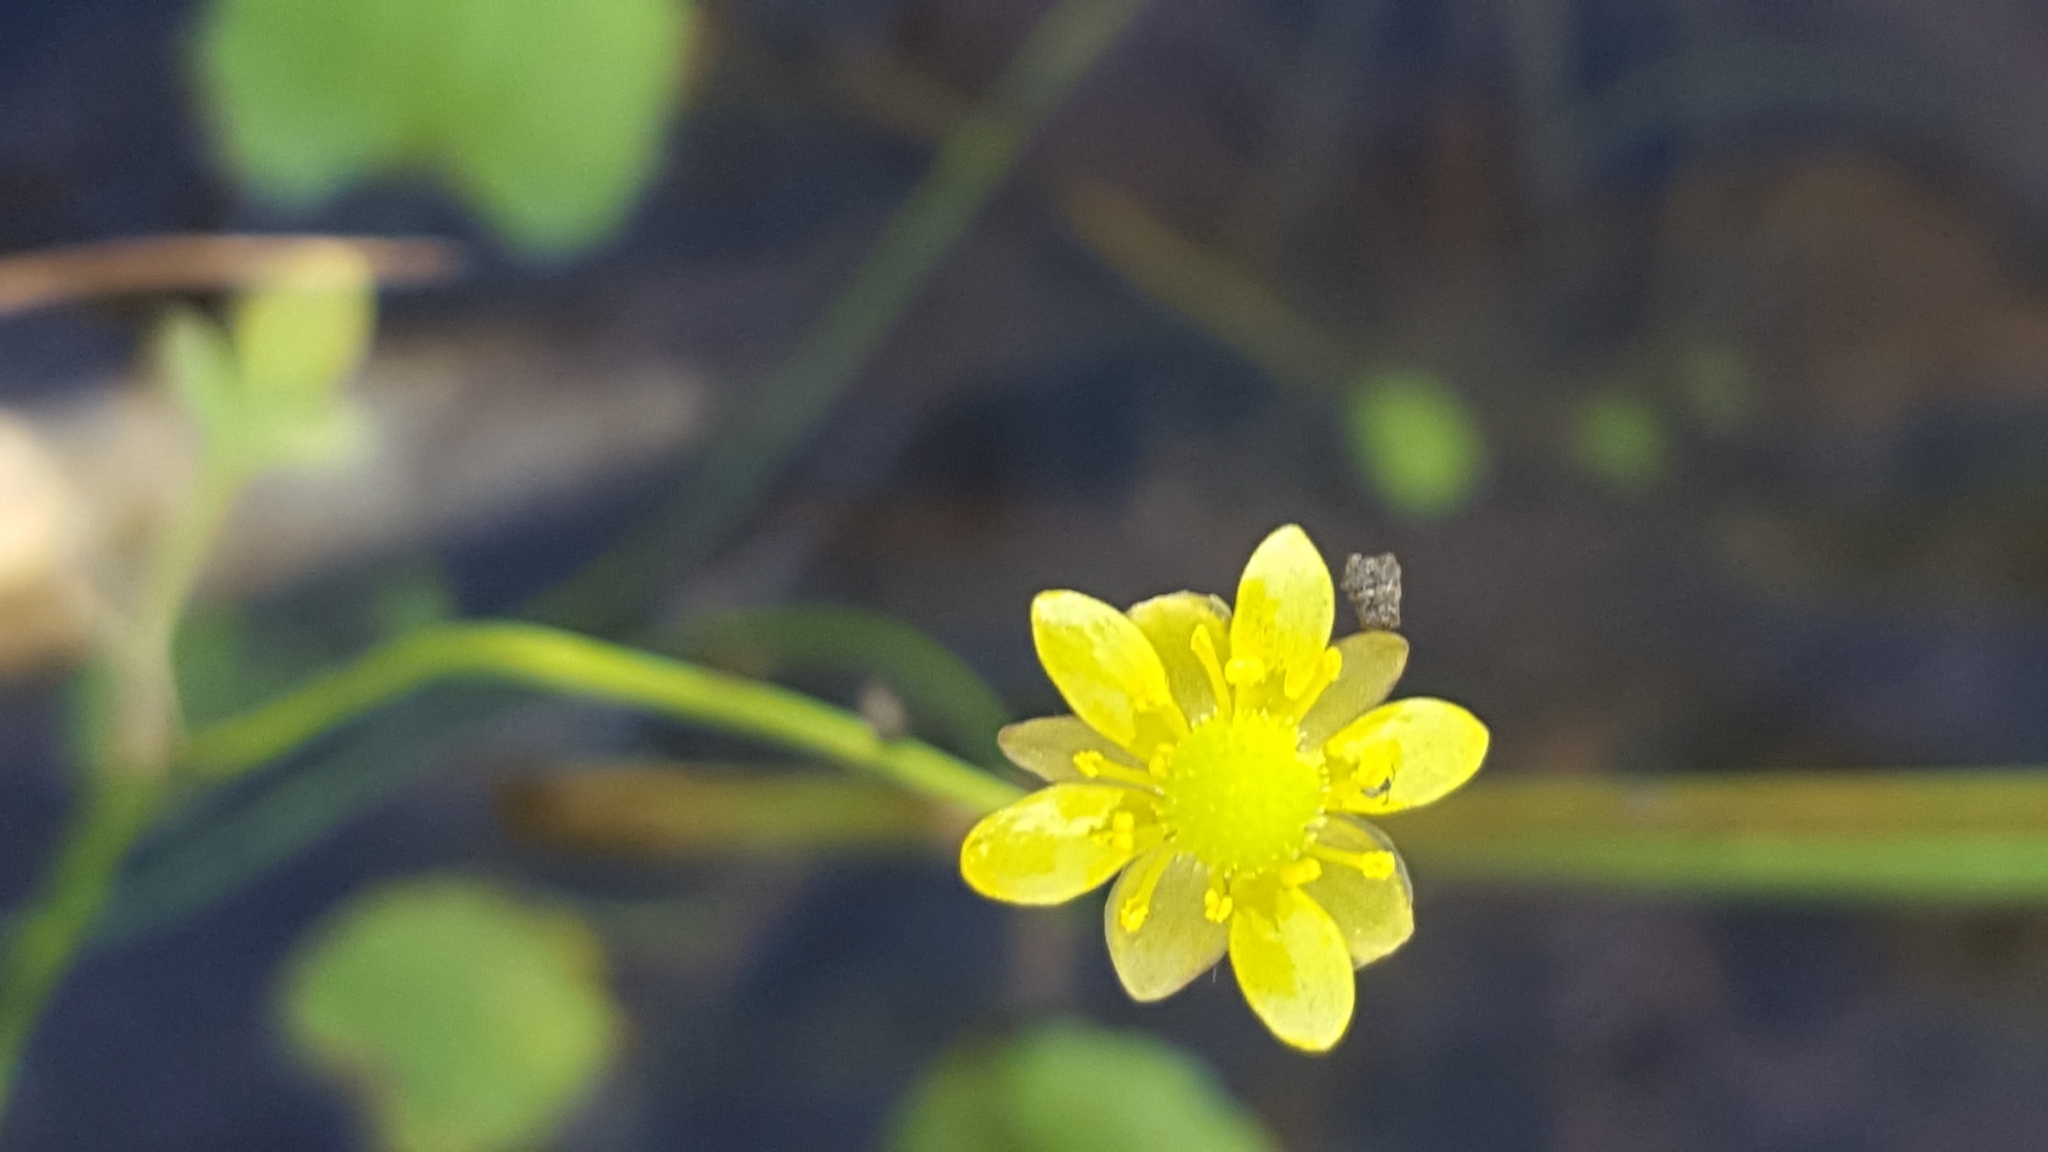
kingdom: Plantae
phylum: Tracheophyta
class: Magnoliopsida
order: Ranunculales
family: Ranunculaceae
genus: Halerpestes
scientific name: Halerpestes cymbalaria
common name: Seaside crowfoot
